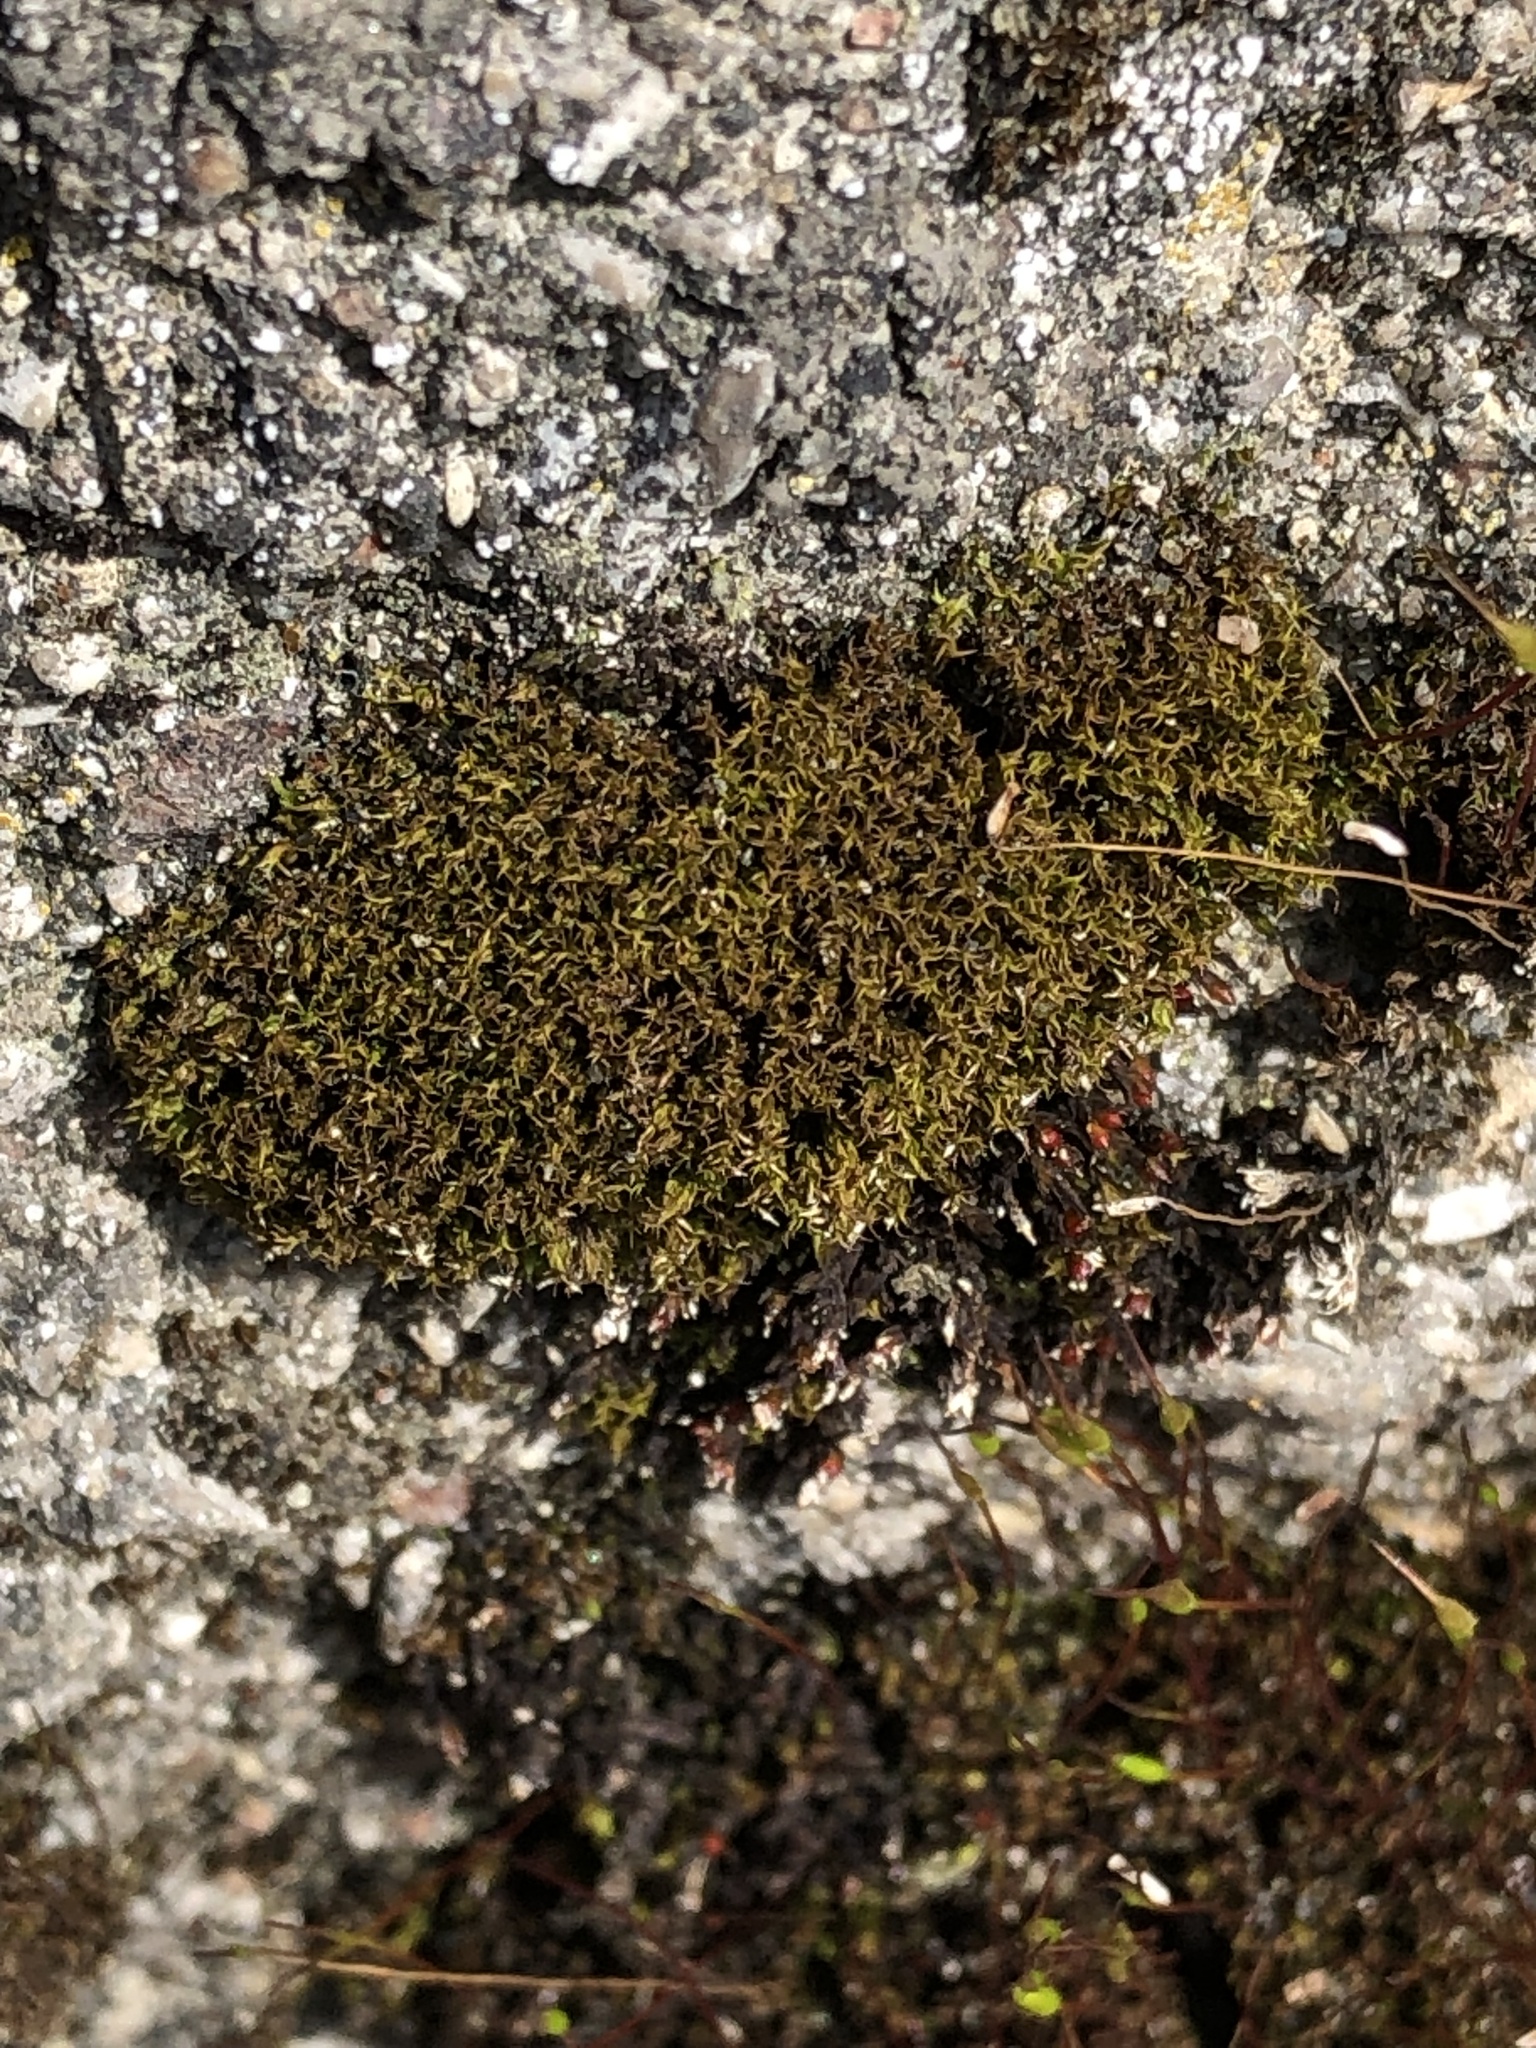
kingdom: Plantae
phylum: Bryophyta
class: Bryopsida
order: Dicranales
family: Ditrichaceae
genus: Ceratodon
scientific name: Ceratodon purpureus
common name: Redshank
